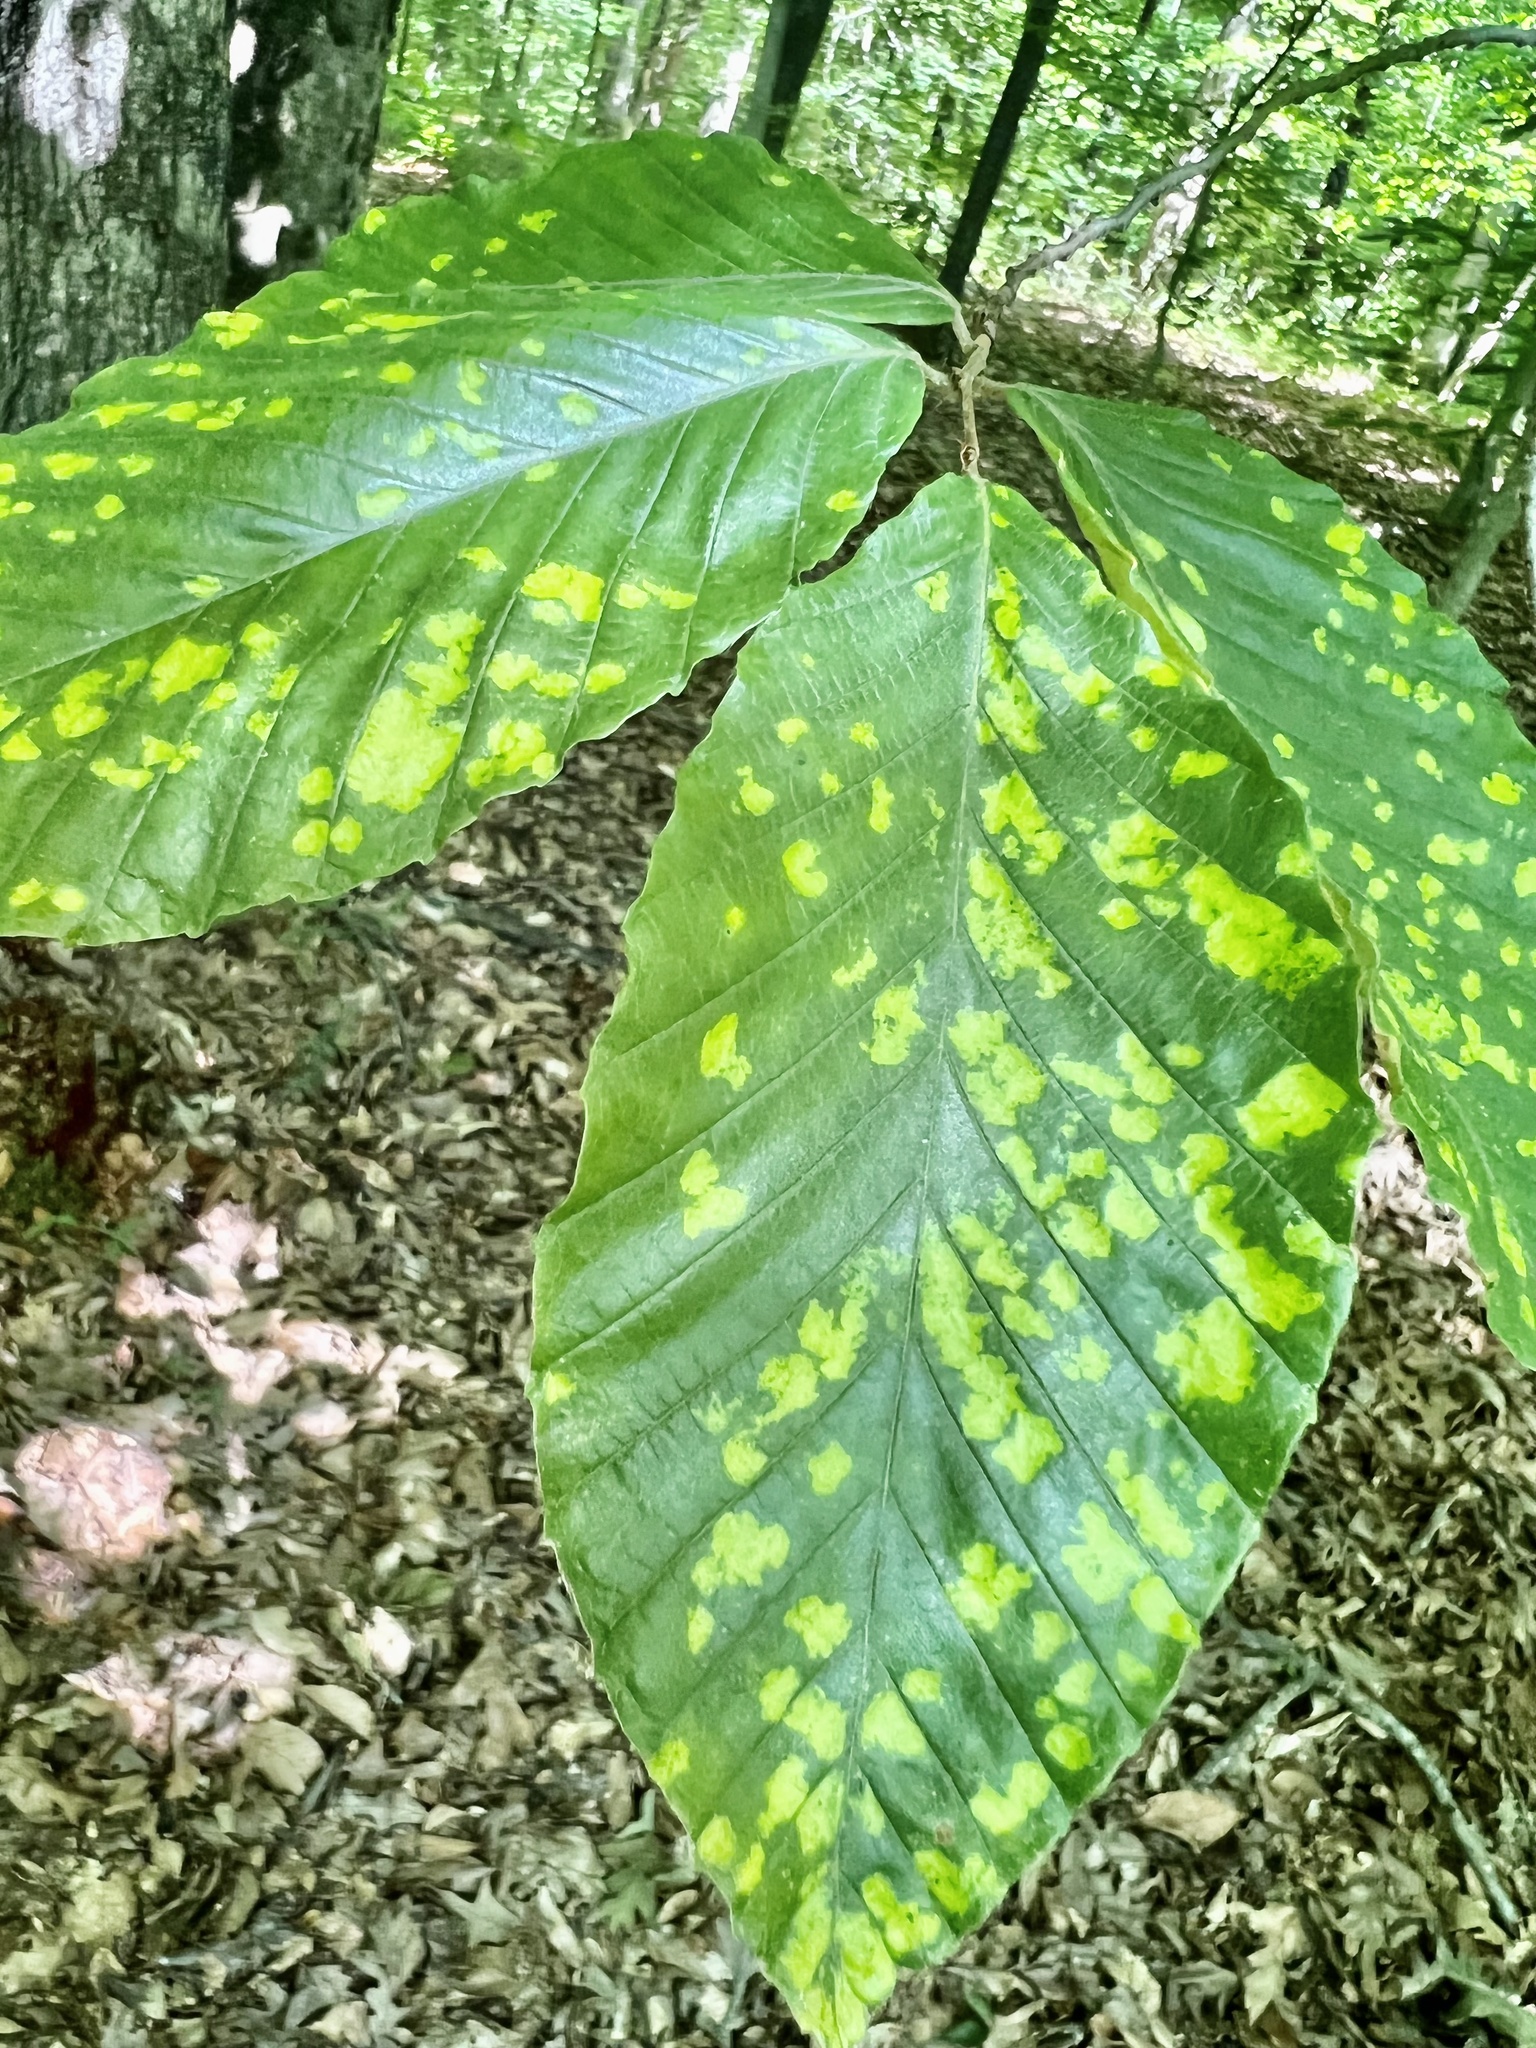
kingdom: Animalia
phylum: Arthropoda
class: Arachnida
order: Trombidiformes
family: Eriophyidae
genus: Acalitus
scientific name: Acalitus
